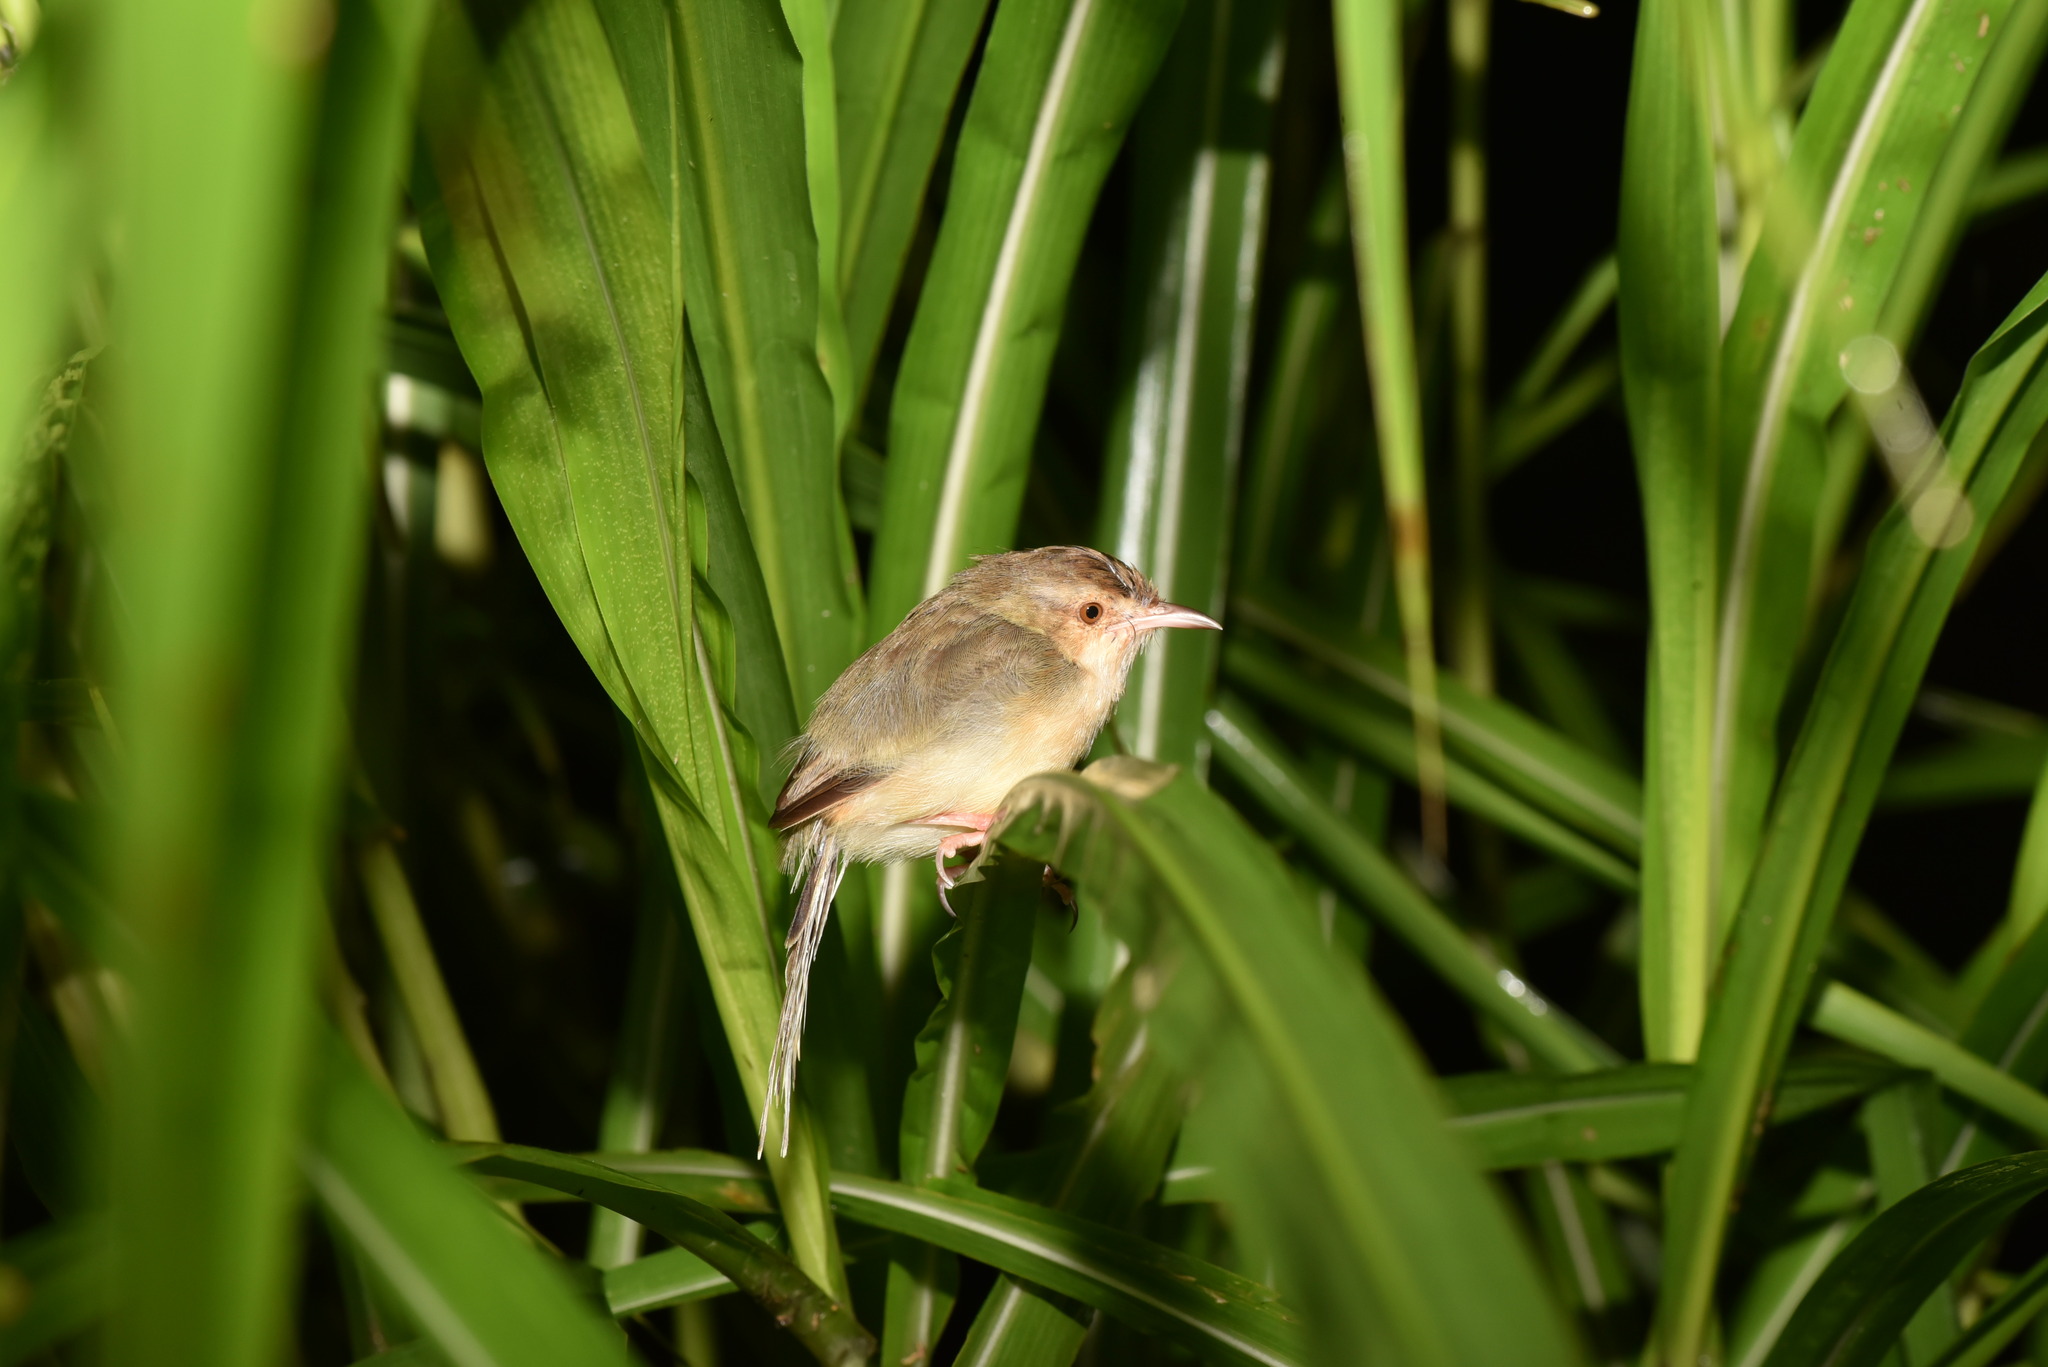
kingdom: Animalia
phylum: Chordata
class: Aves
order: Passeriformes
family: Cisticolidae
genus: Prinia
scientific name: Prinia inornata
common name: Plain prinia
